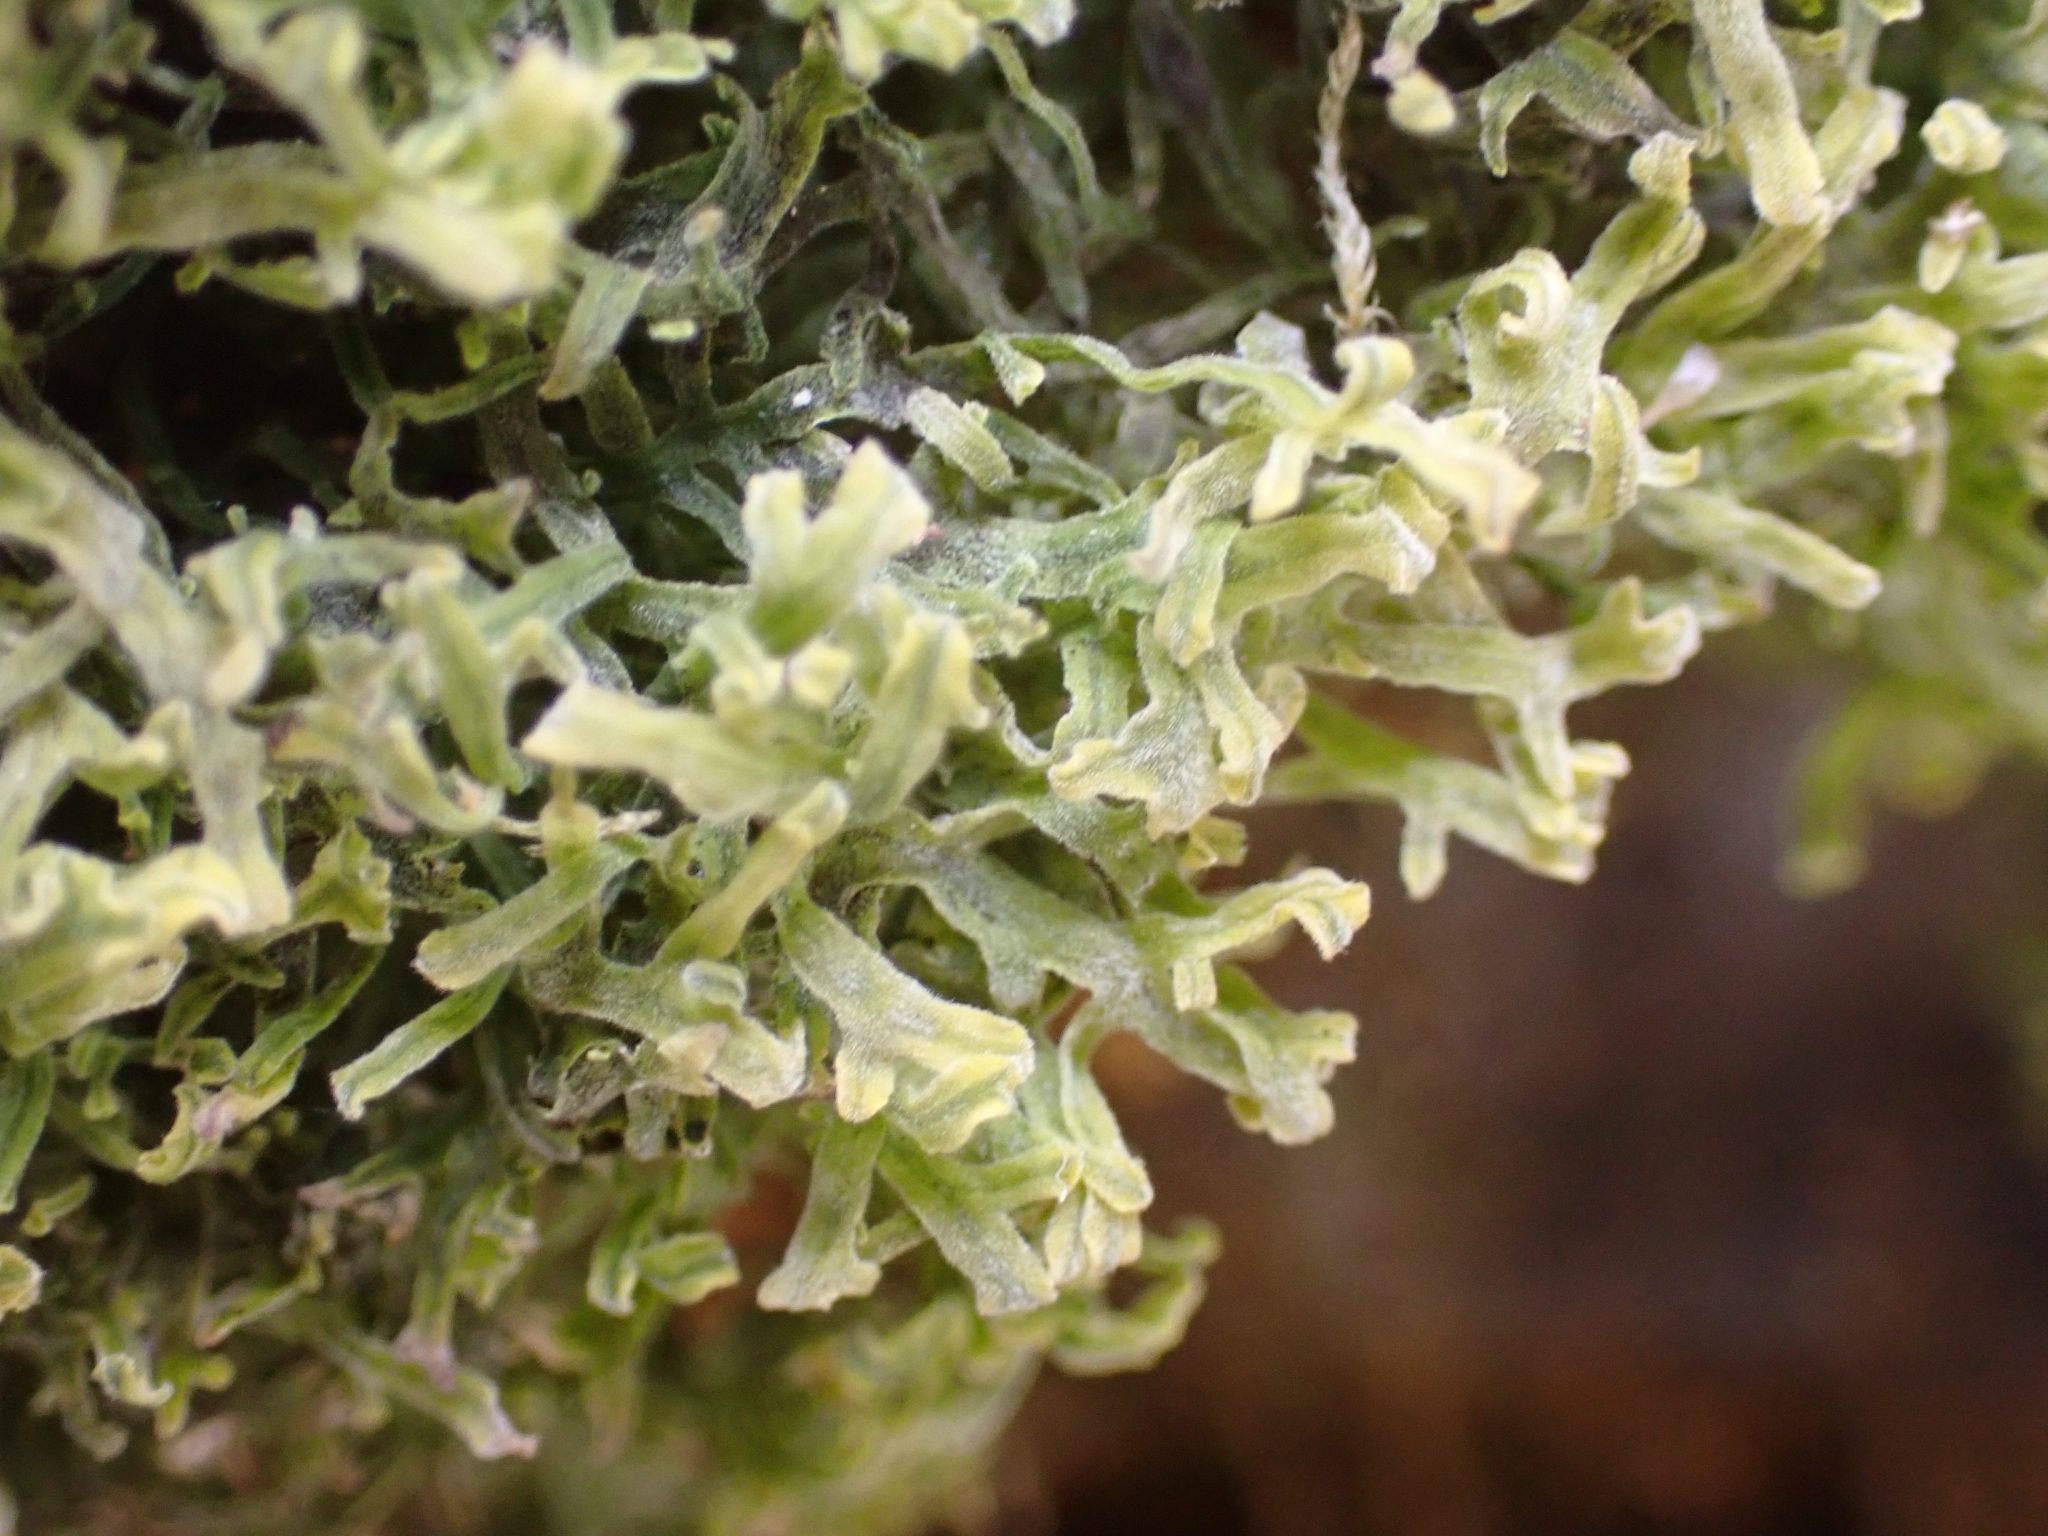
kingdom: Plantae
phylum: Marchantiophyta
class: Jungermanniopsida
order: Metzgeriales
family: Metzgeriaceae
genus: Metzgeria
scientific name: Metzgeria pubescens
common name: Downy veilwort
